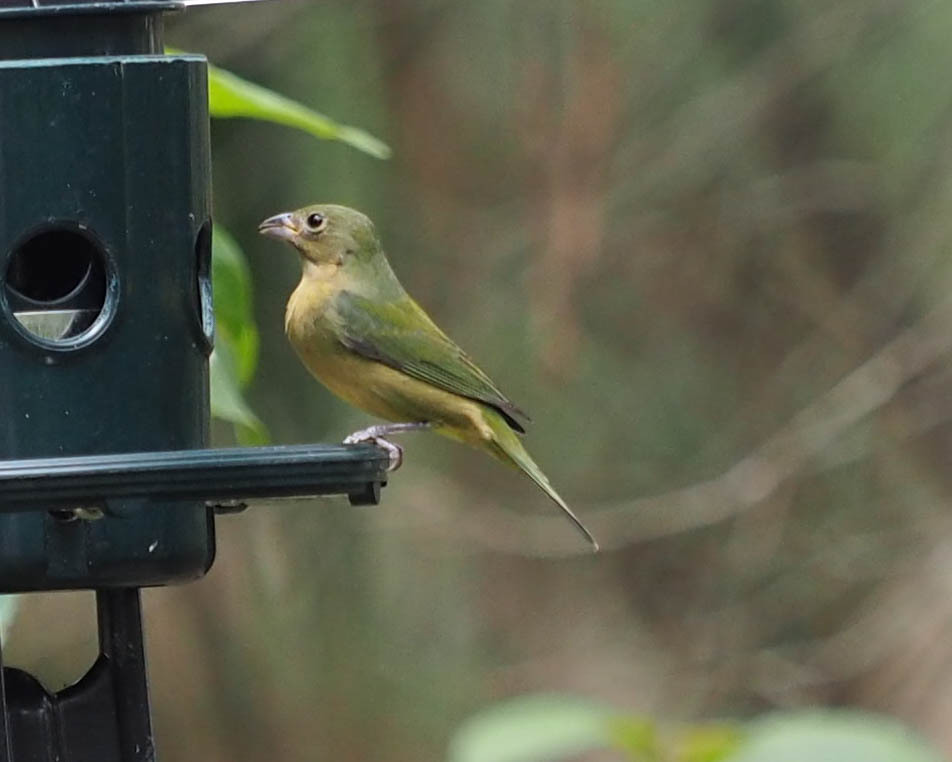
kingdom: Animalia
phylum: Chordata
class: Aves
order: Passeriformes
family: Cardinalidae
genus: Passerina
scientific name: Passerina ciris
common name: Painted bunting
